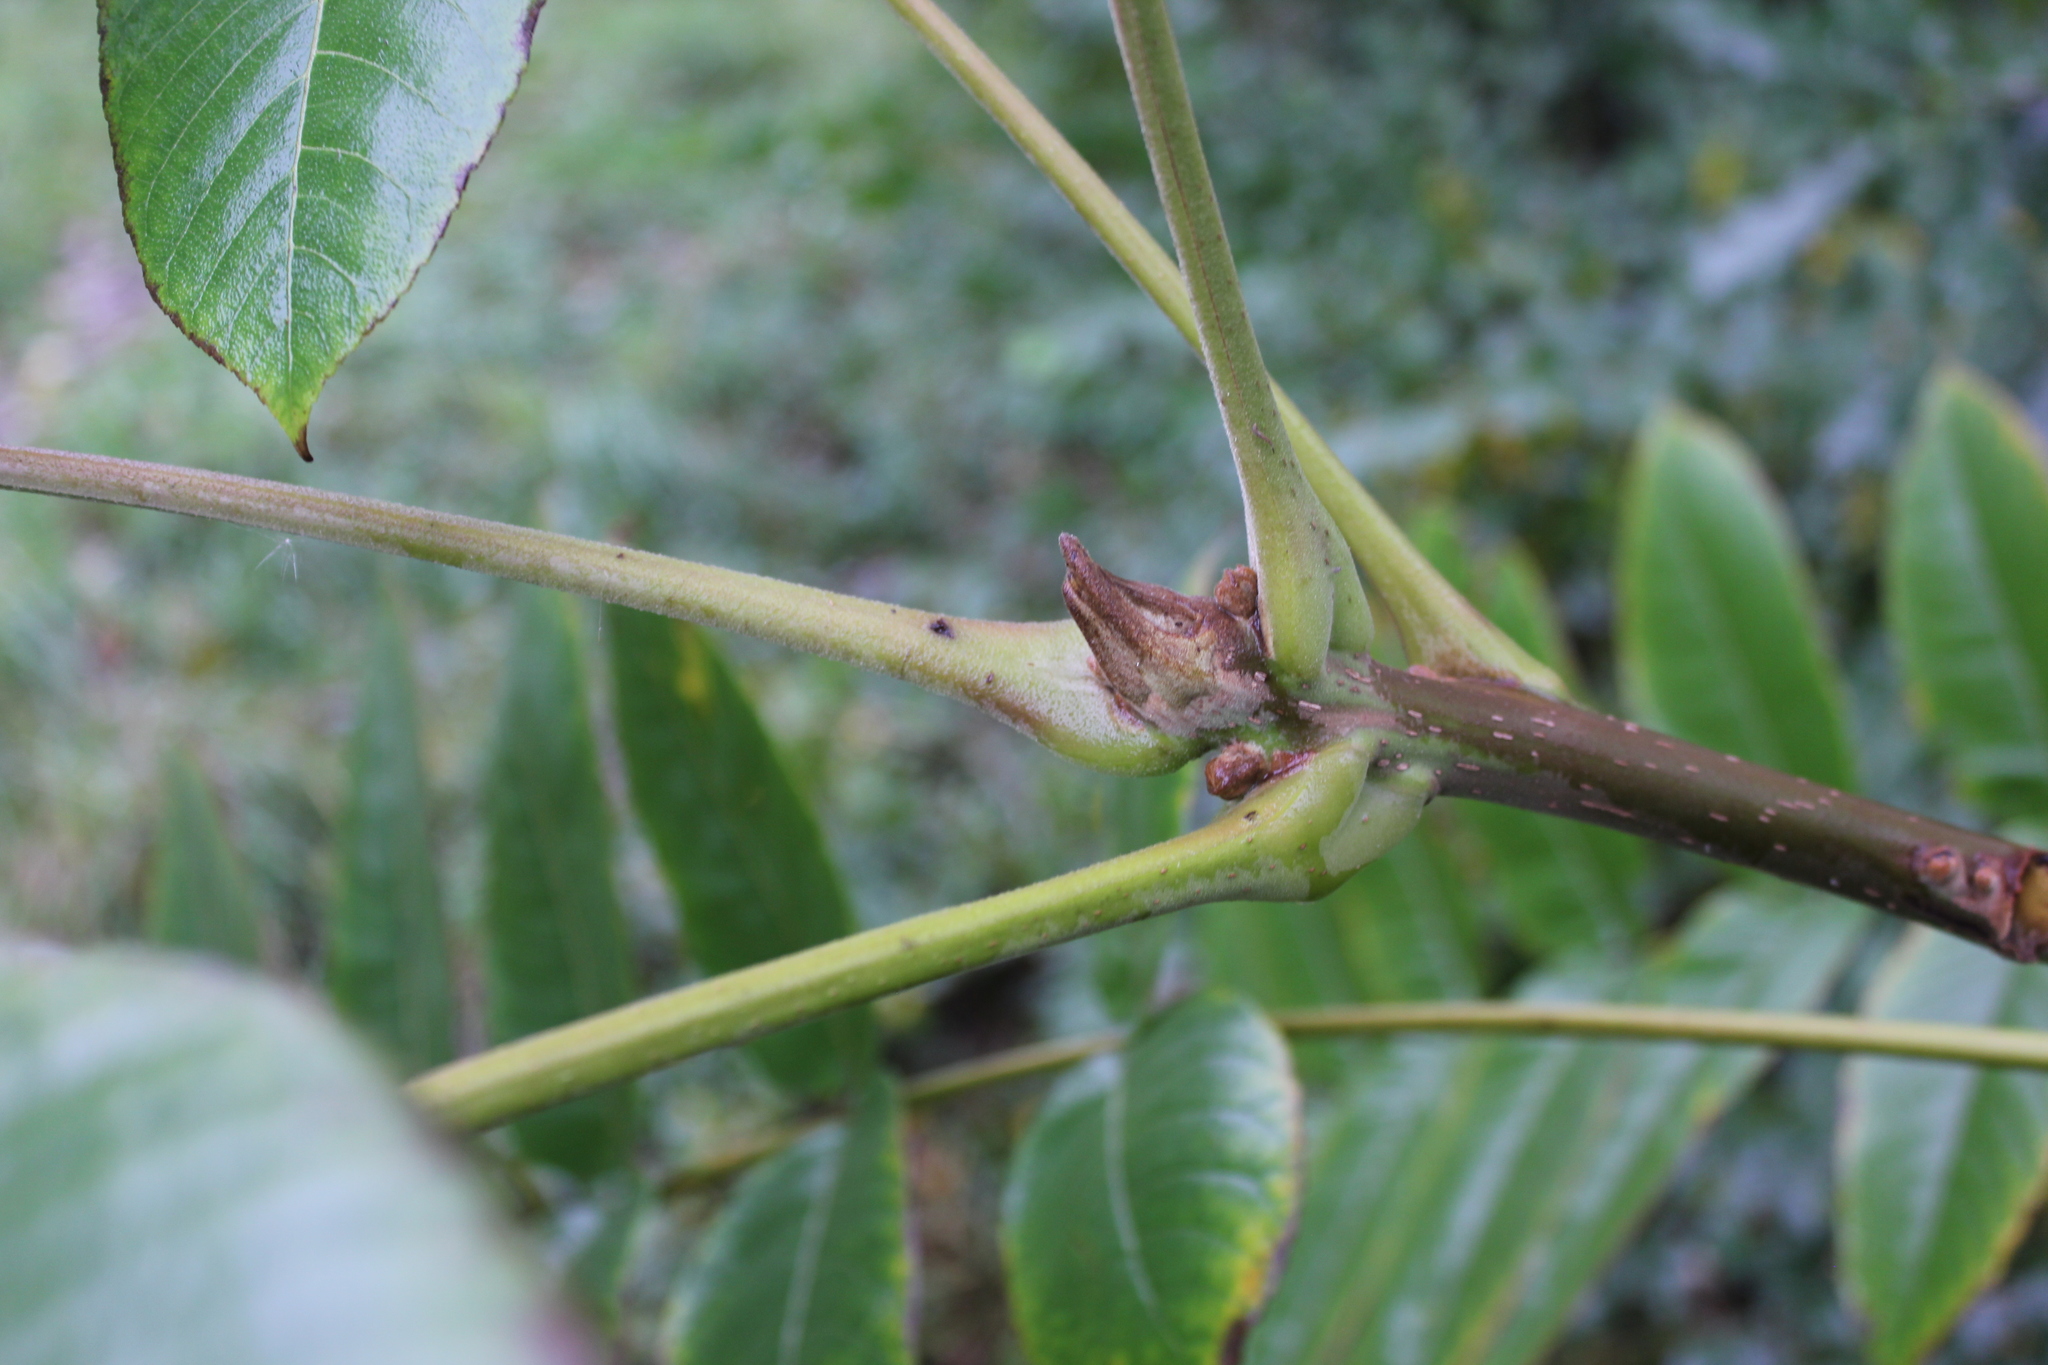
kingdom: Plantae
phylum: Tracheophyta
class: Magnoliopsida
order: Fagales
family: Juglandaceae
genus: Juglans
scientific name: Juglans mandshurica
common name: Manchurian walnut
